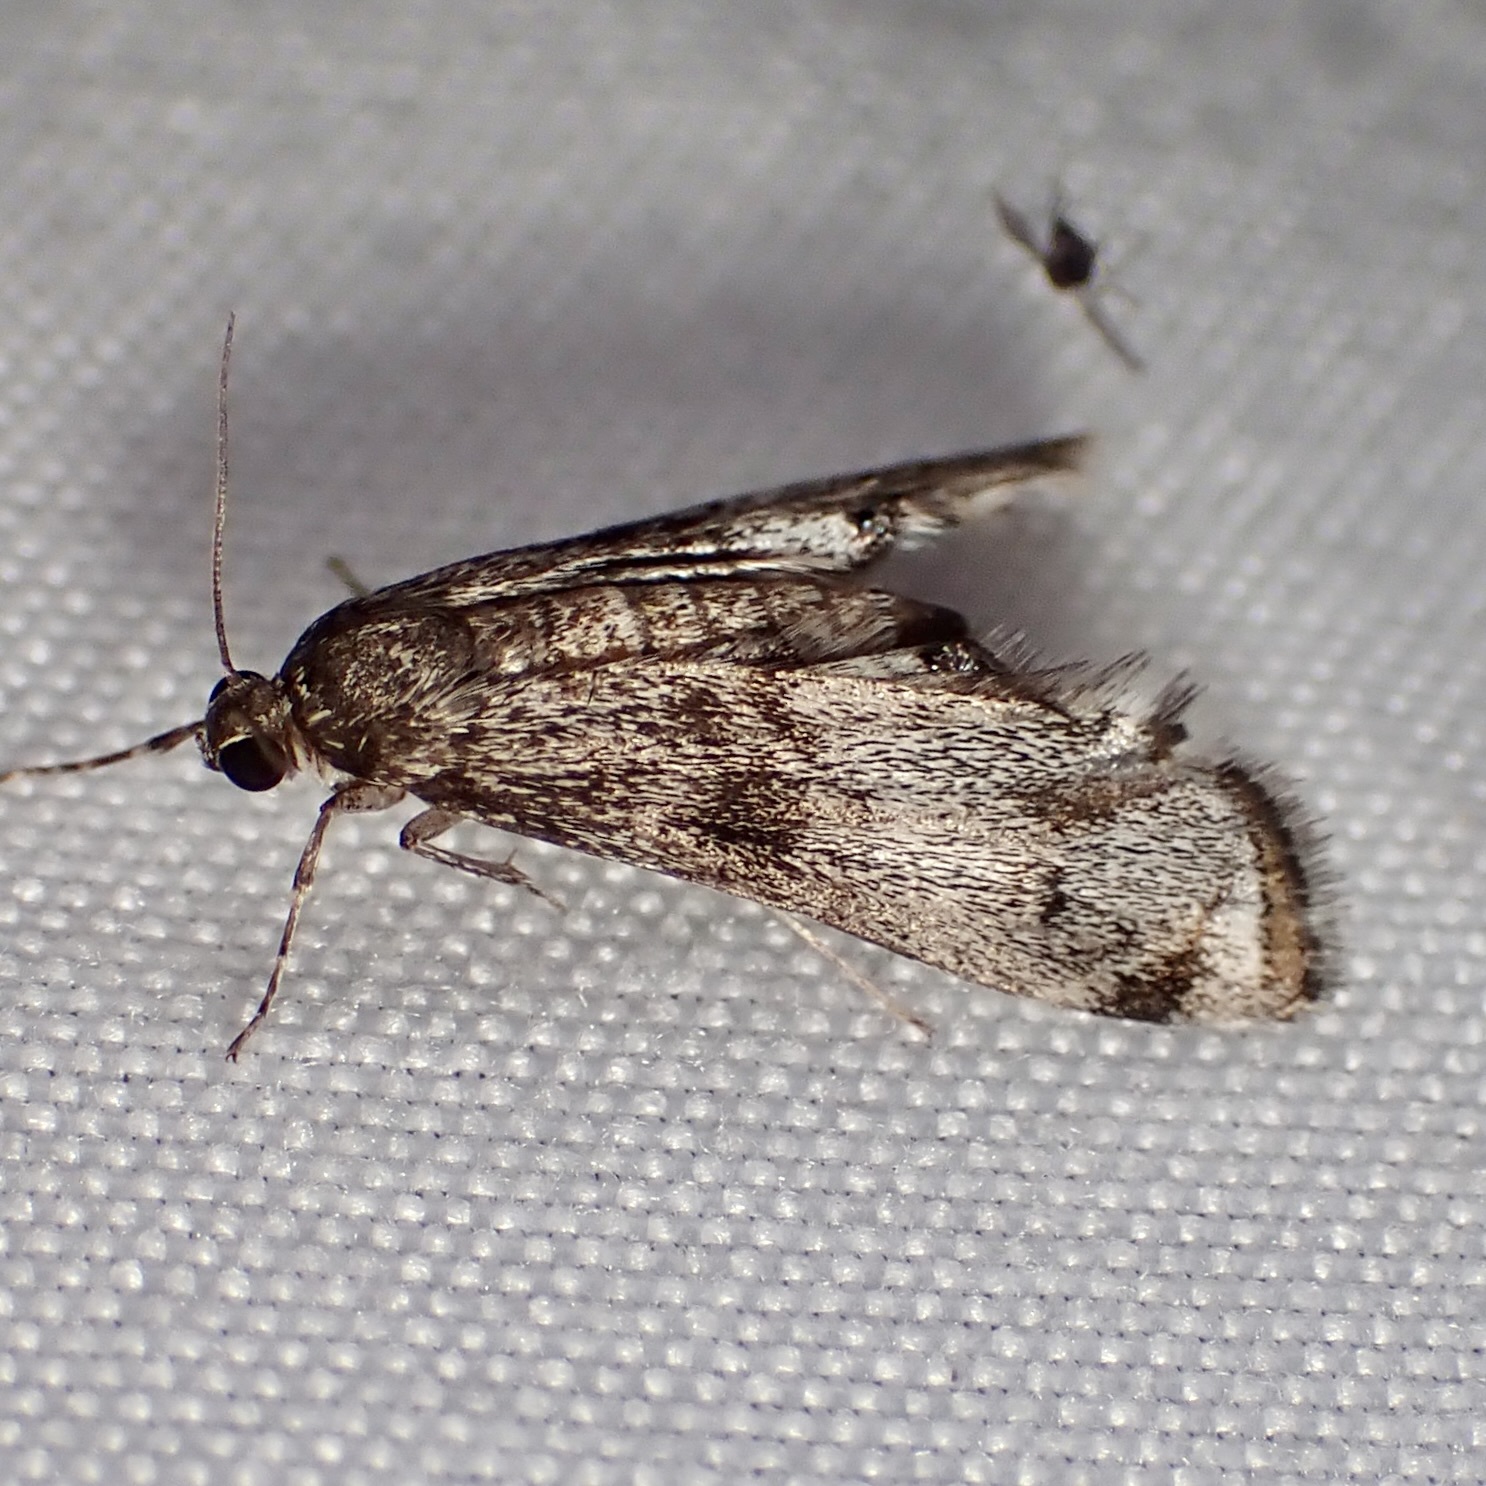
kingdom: Animalia
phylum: Arthropoda
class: Insecta
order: Lepidoptera
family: Crambidae
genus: Petrophila
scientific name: Petrophila schaefferalis
